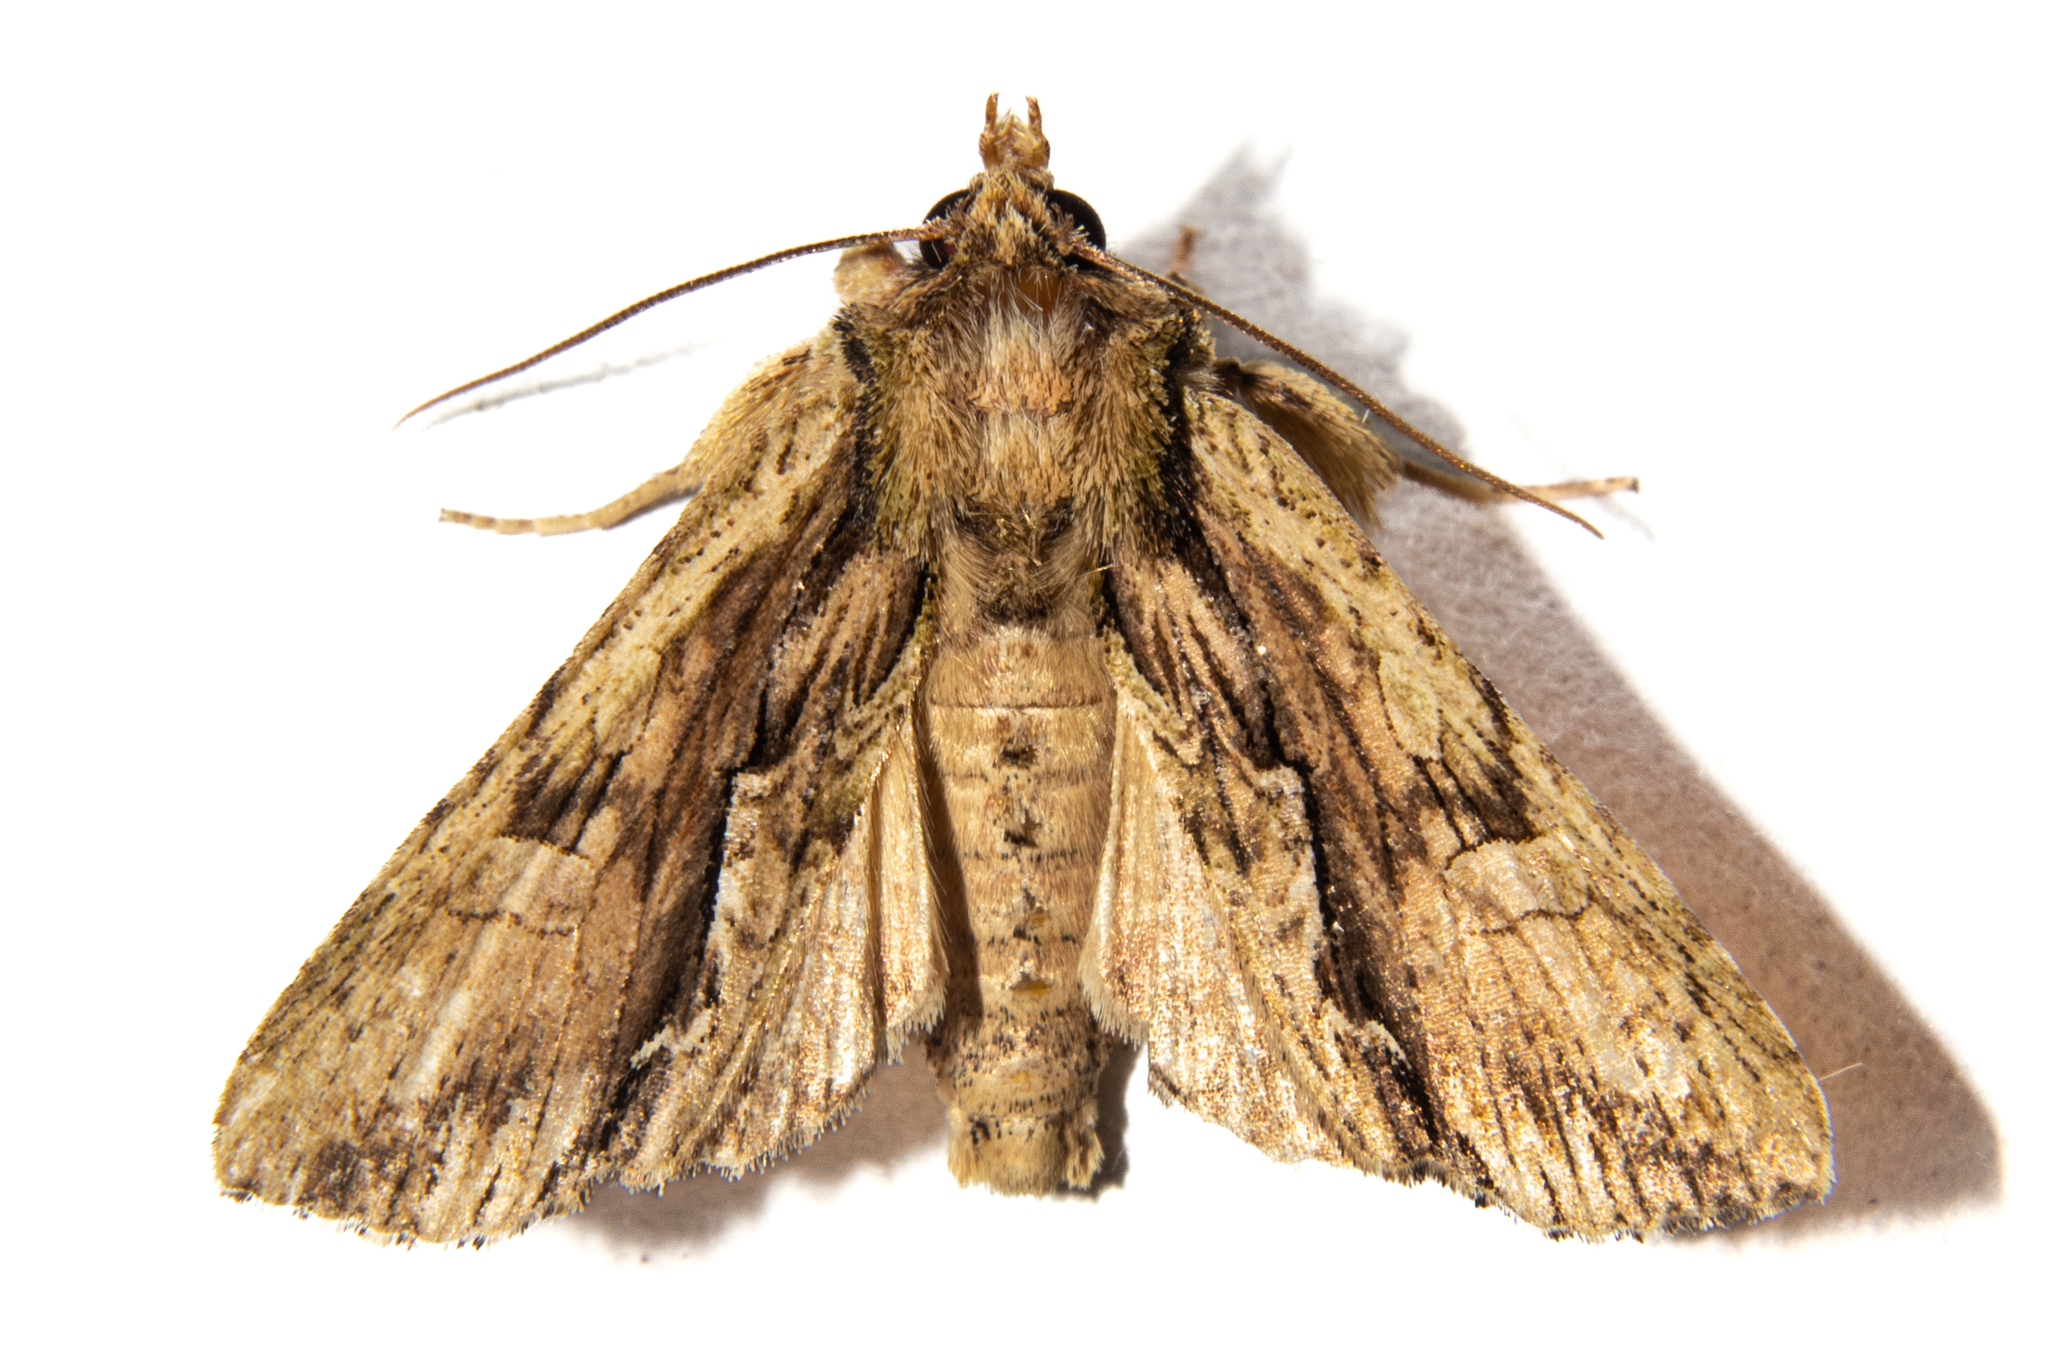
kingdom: Animalia
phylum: Arthropoda
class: Insecta
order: Lepidoptera
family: Noctuidae
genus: Meterana
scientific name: Meterana decorata
